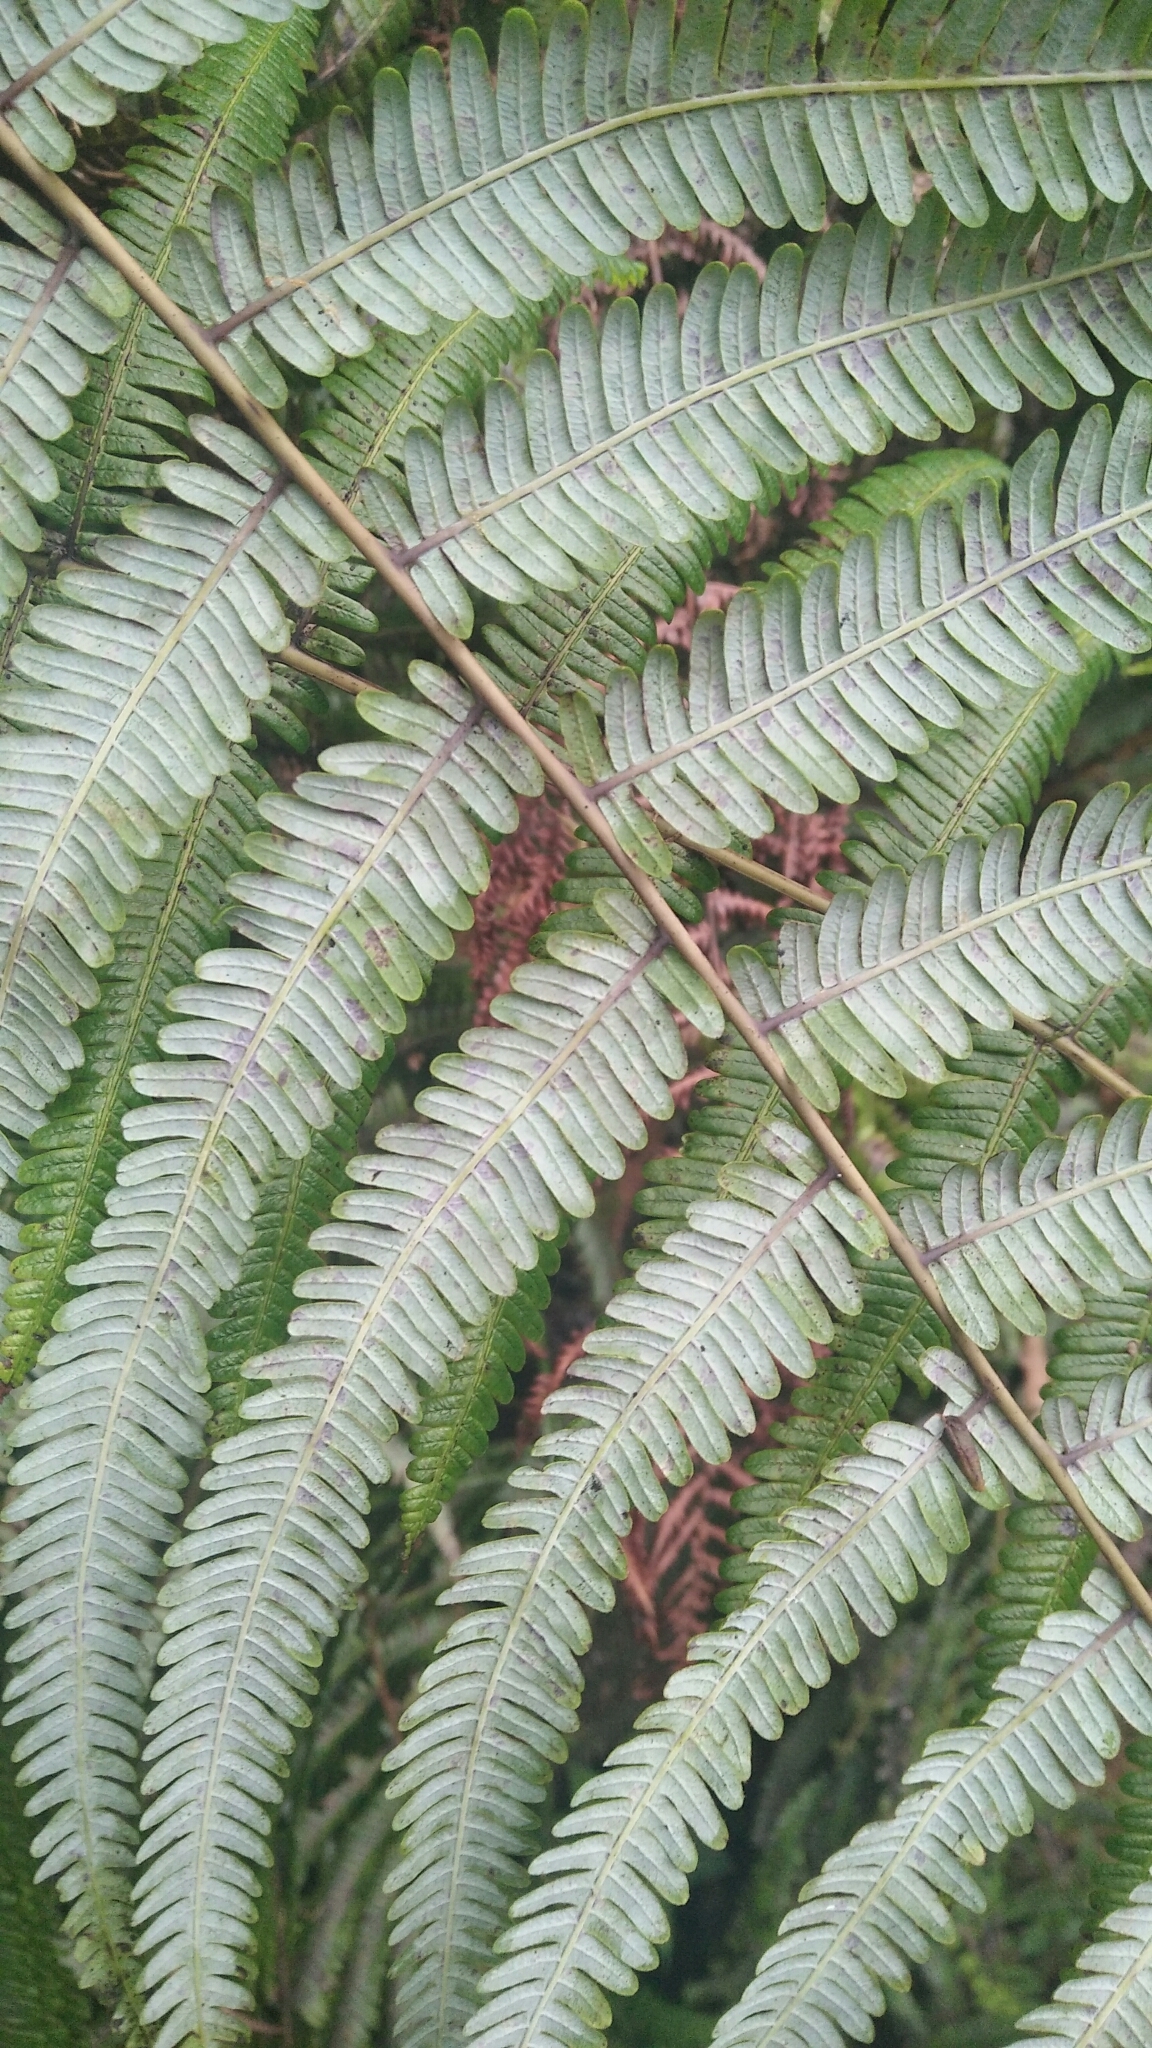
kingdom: Plantae
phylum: Tracheophyta
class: Polypodiopsida
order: Gleicheniales
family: Gleicheniaceae
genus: Diplopterygium
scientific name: Diplopterygium glaucum
